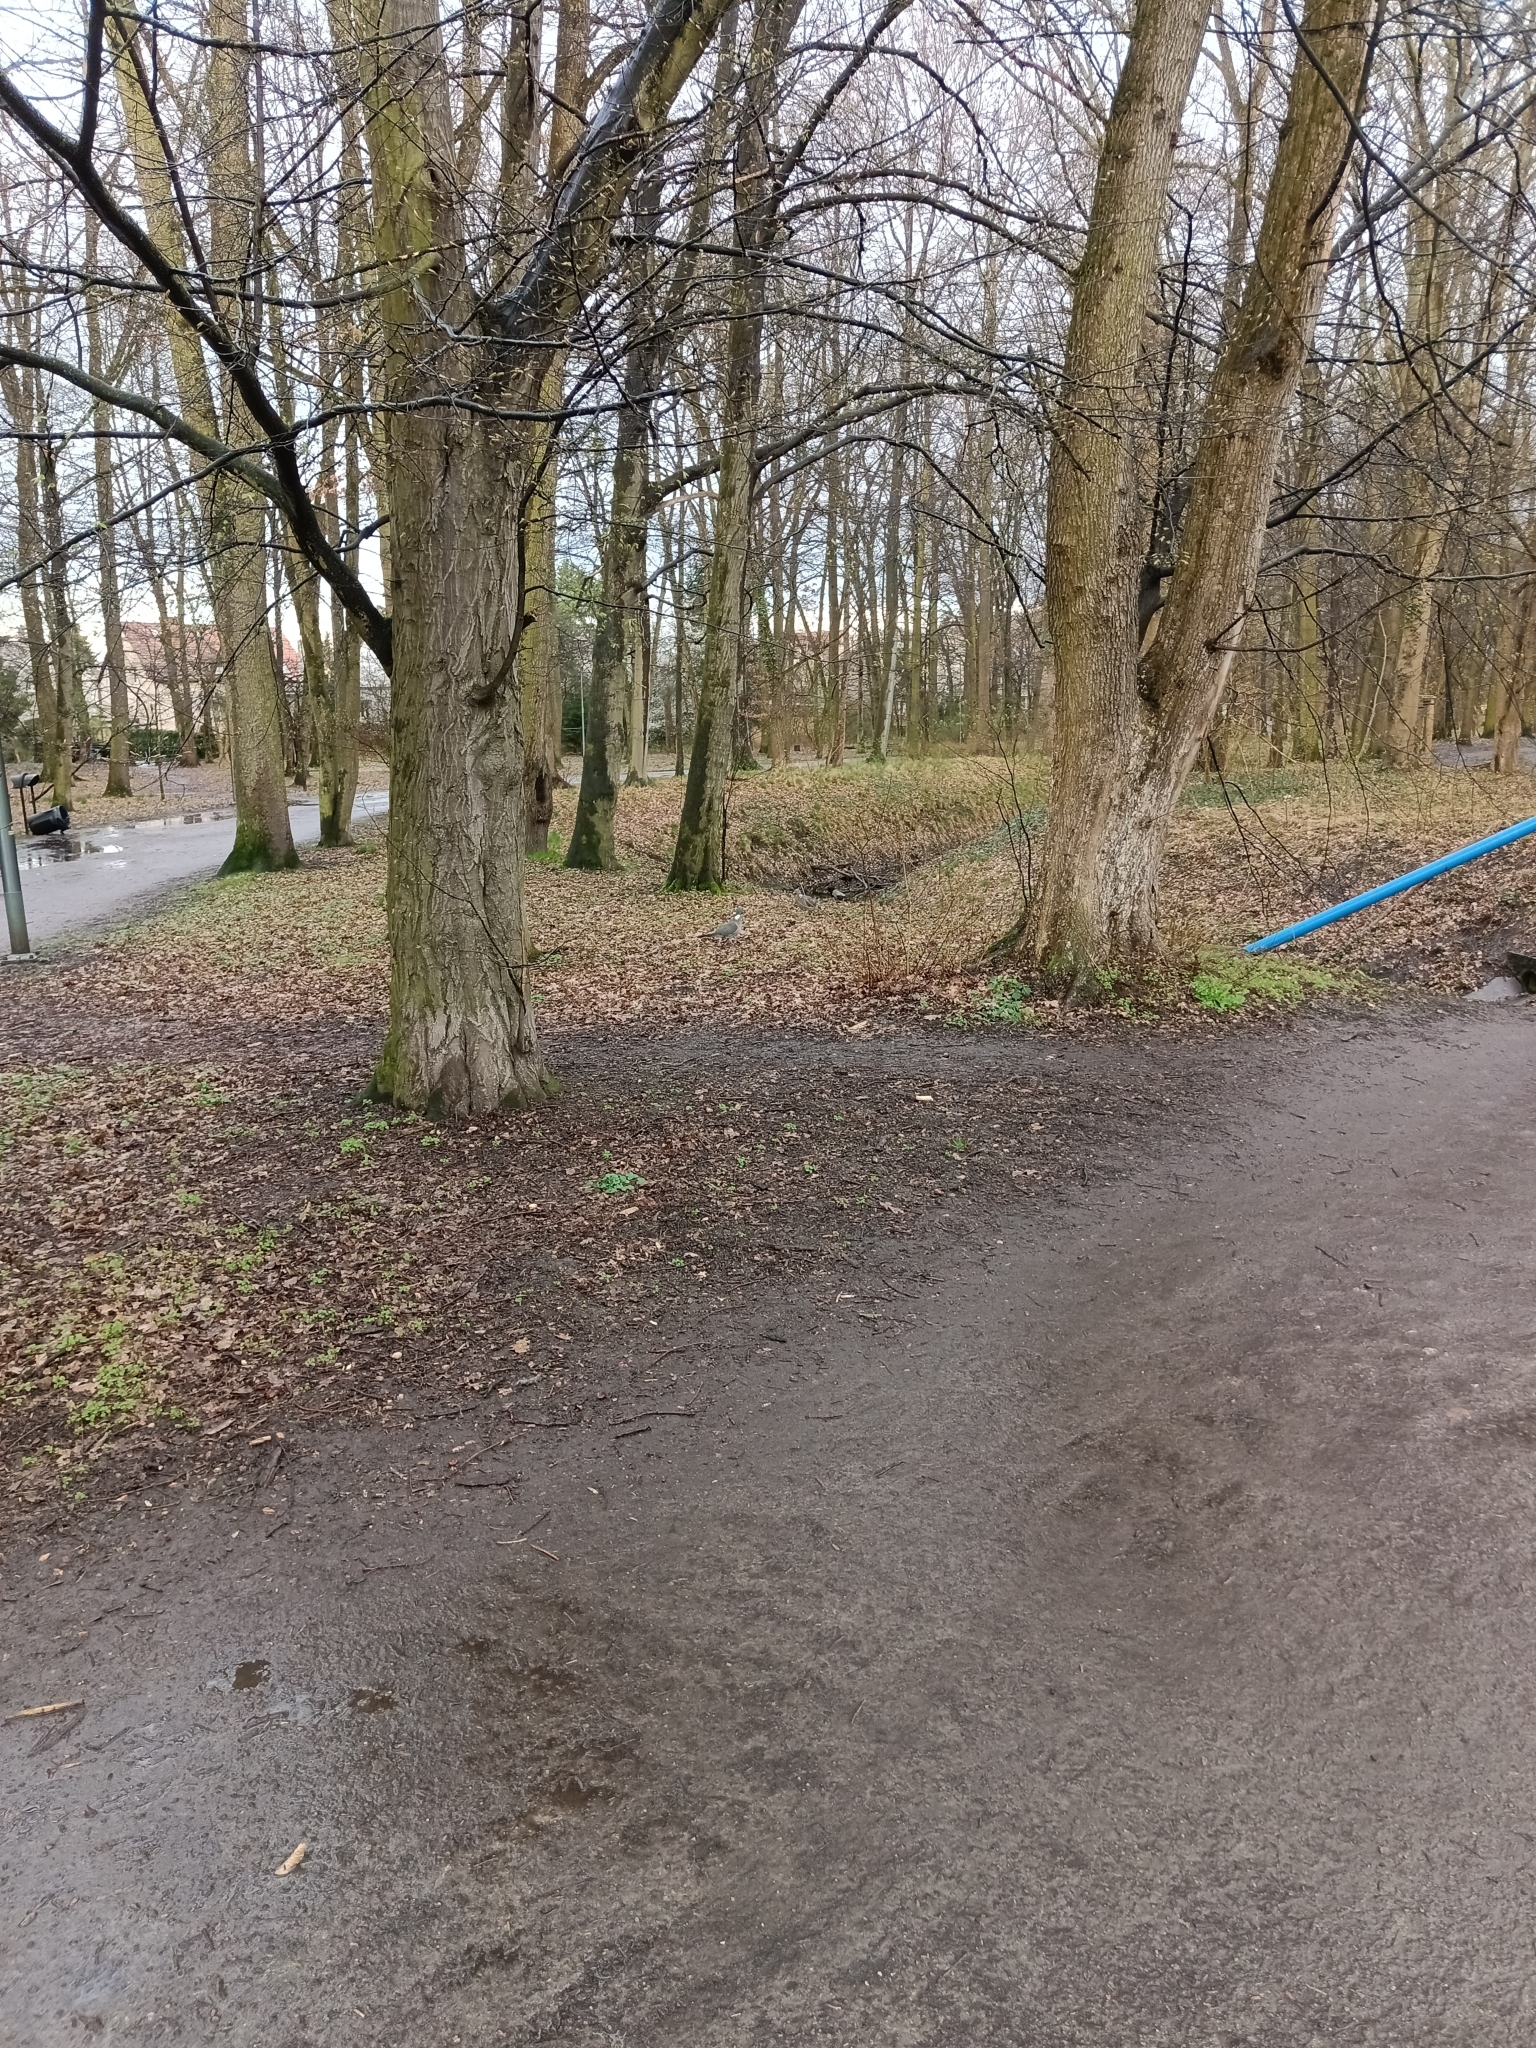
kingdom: Animalia
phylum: Chordata
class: Aves
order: Columbiformes
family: Columbidae
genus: Columba
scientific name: Columba palumbus
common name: Common wood pigeon
